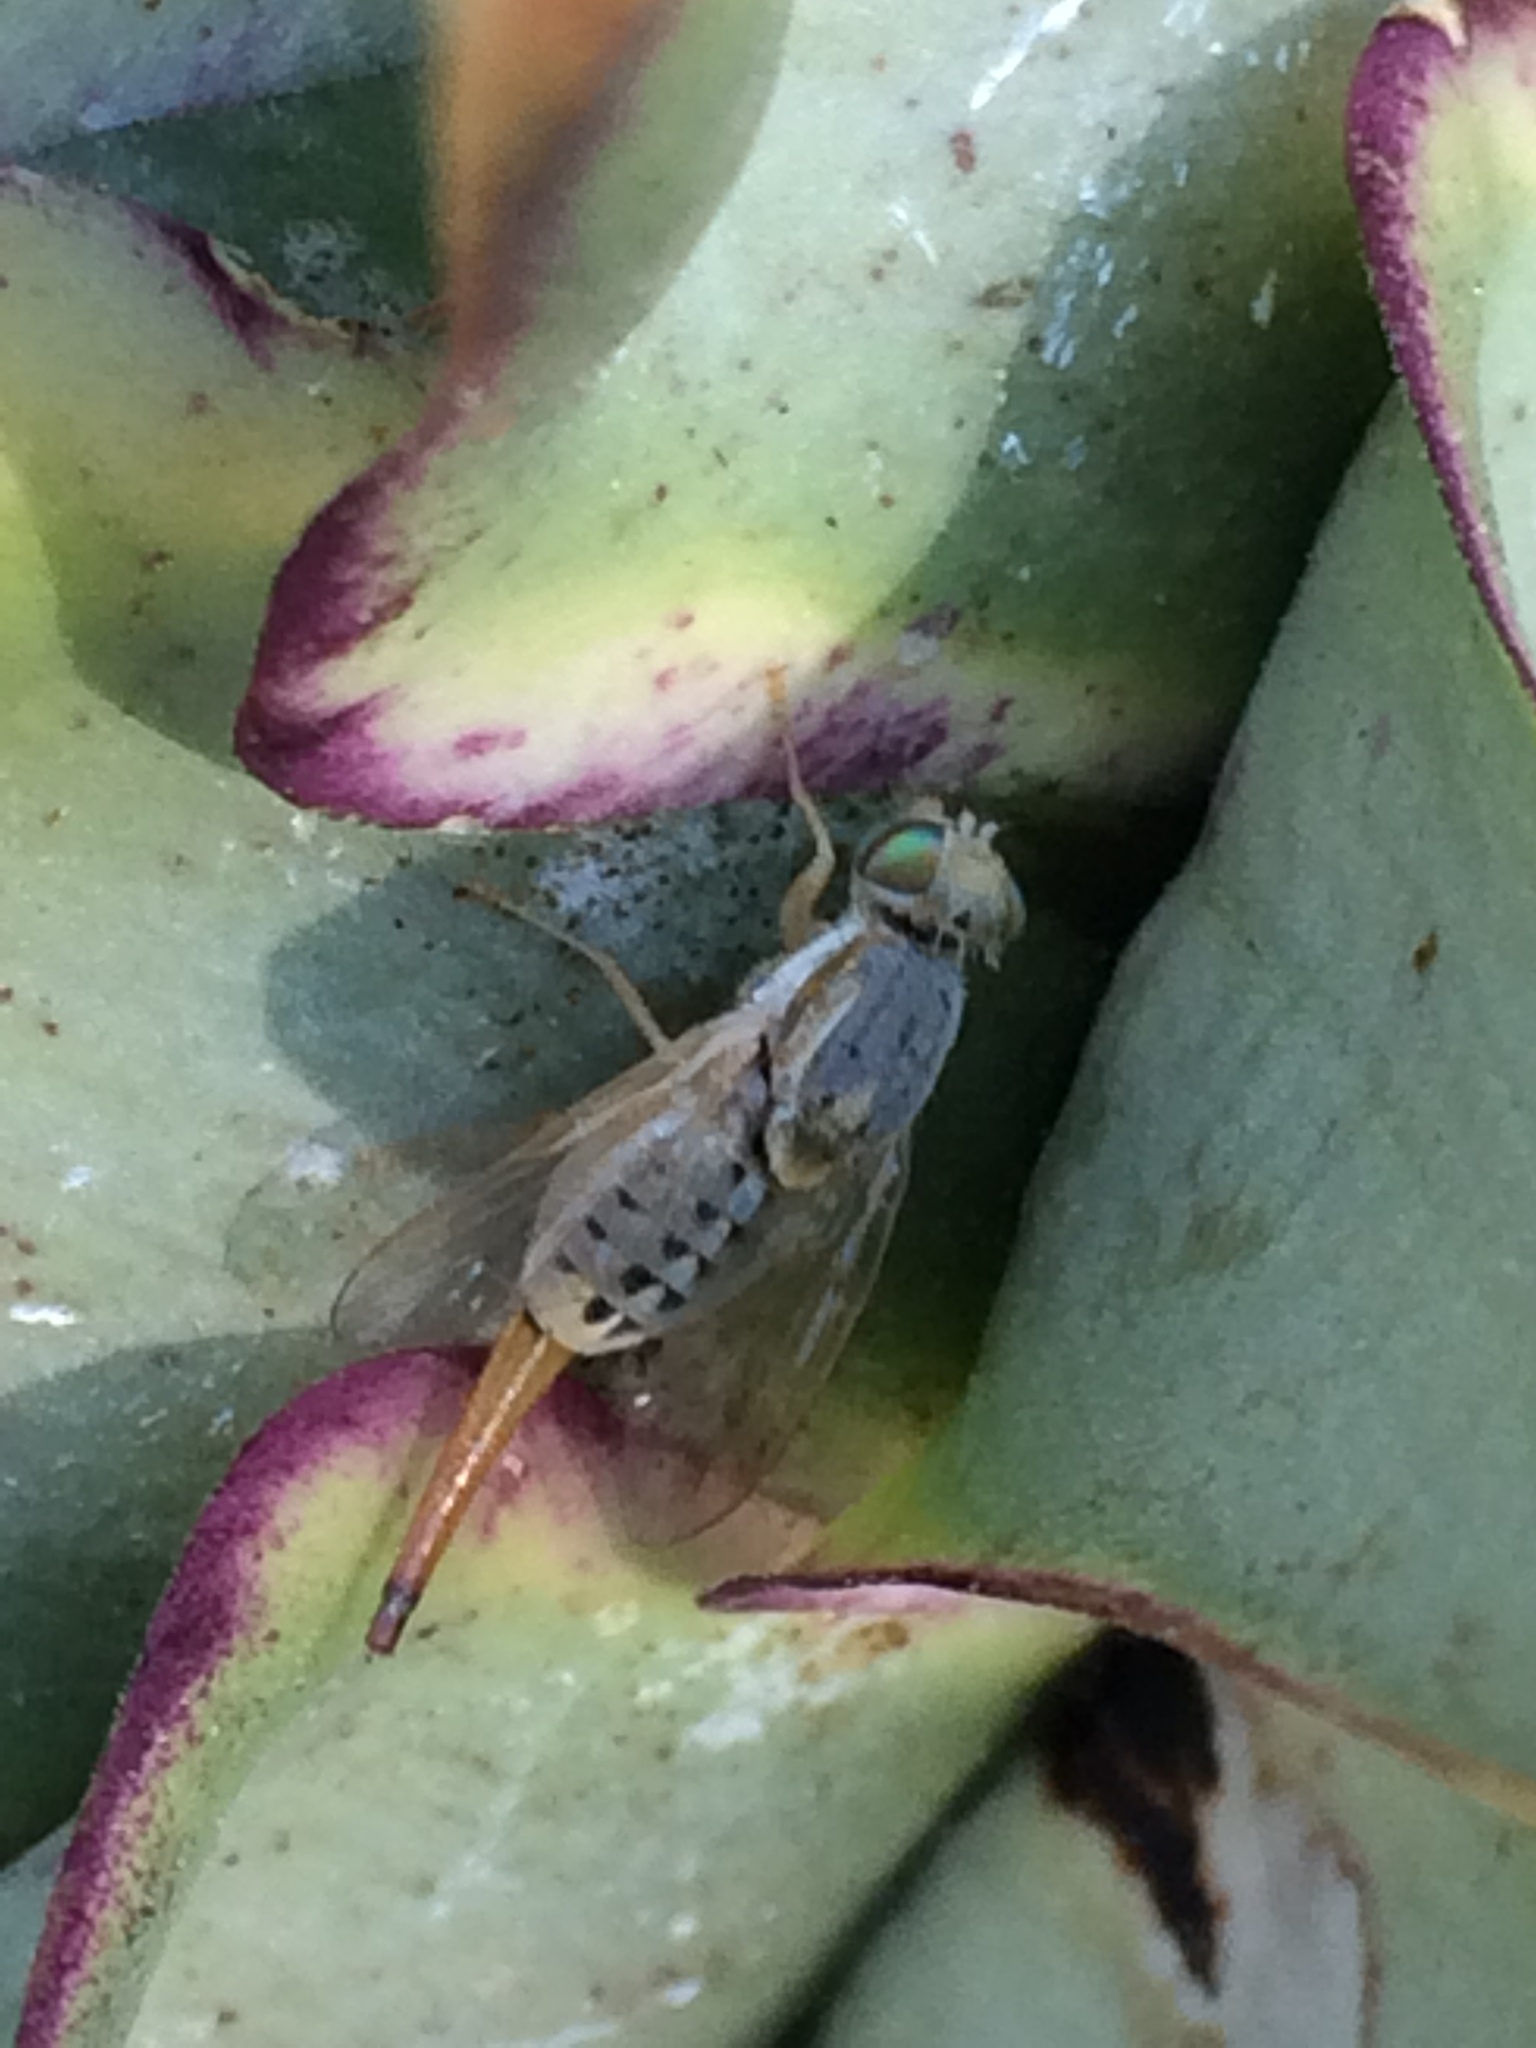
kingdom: Animalia
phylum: Arthropoda
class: Insecta
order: Diptera
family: Tephritidae
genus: Terellia
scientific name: Terellia fuscicornis
